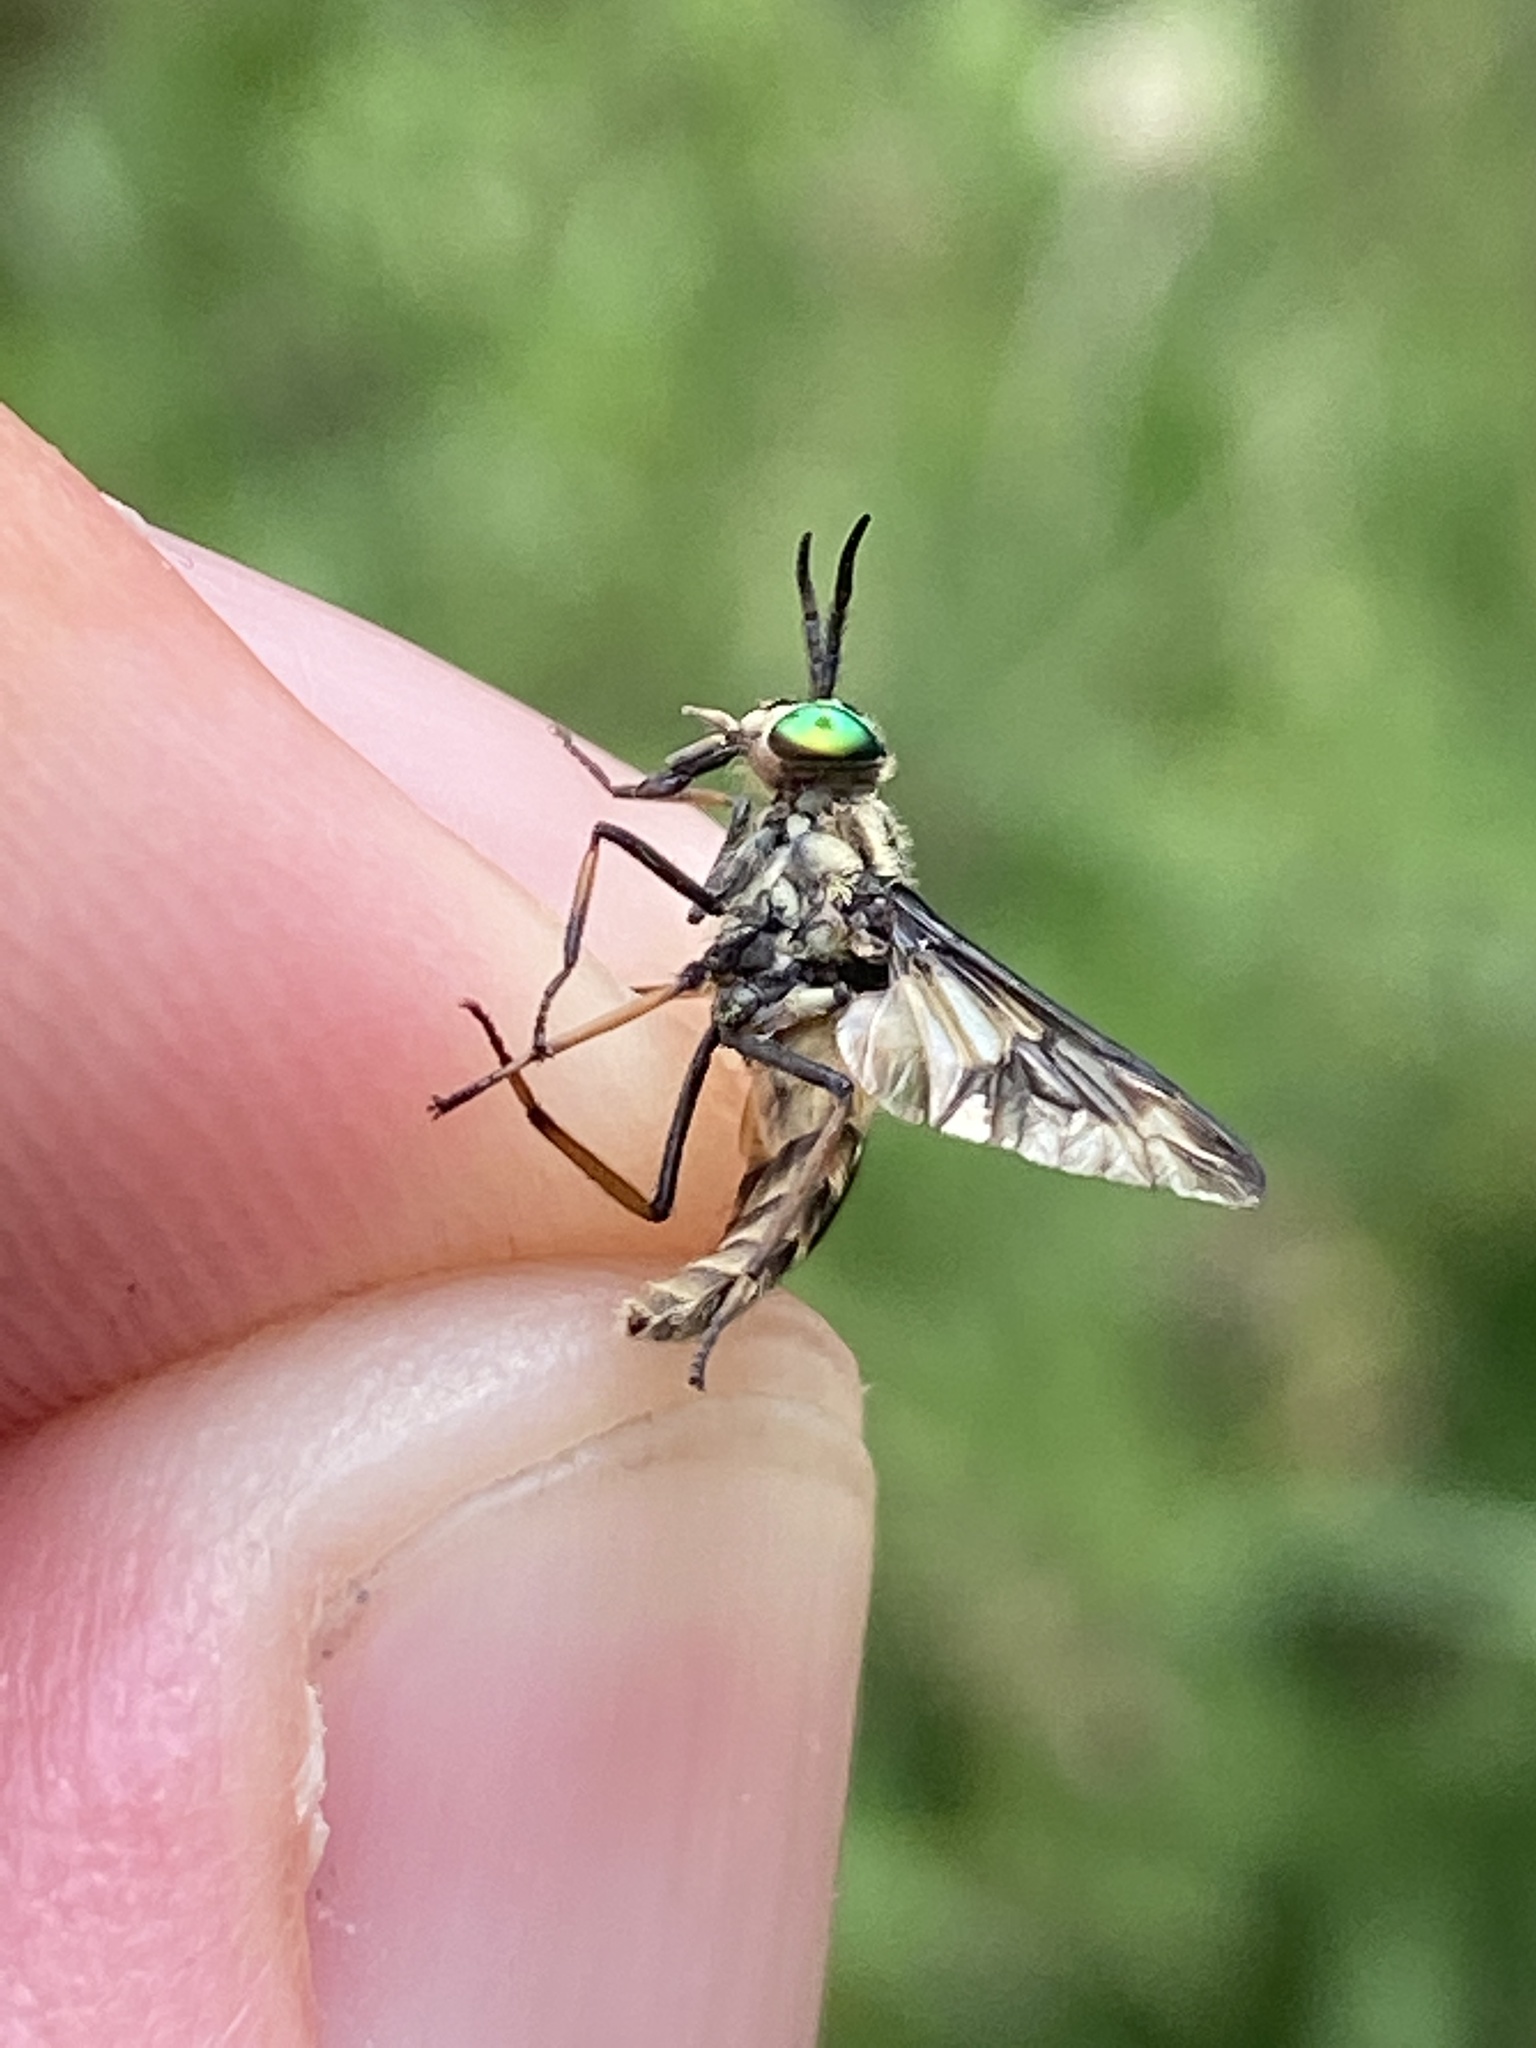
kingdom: Animalia
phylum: Arthropoda
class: Insecta
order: Diptera
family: Tabanidae
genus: Chrysops
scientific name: Chrysops relictus
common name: Twin-lobed deerfly
